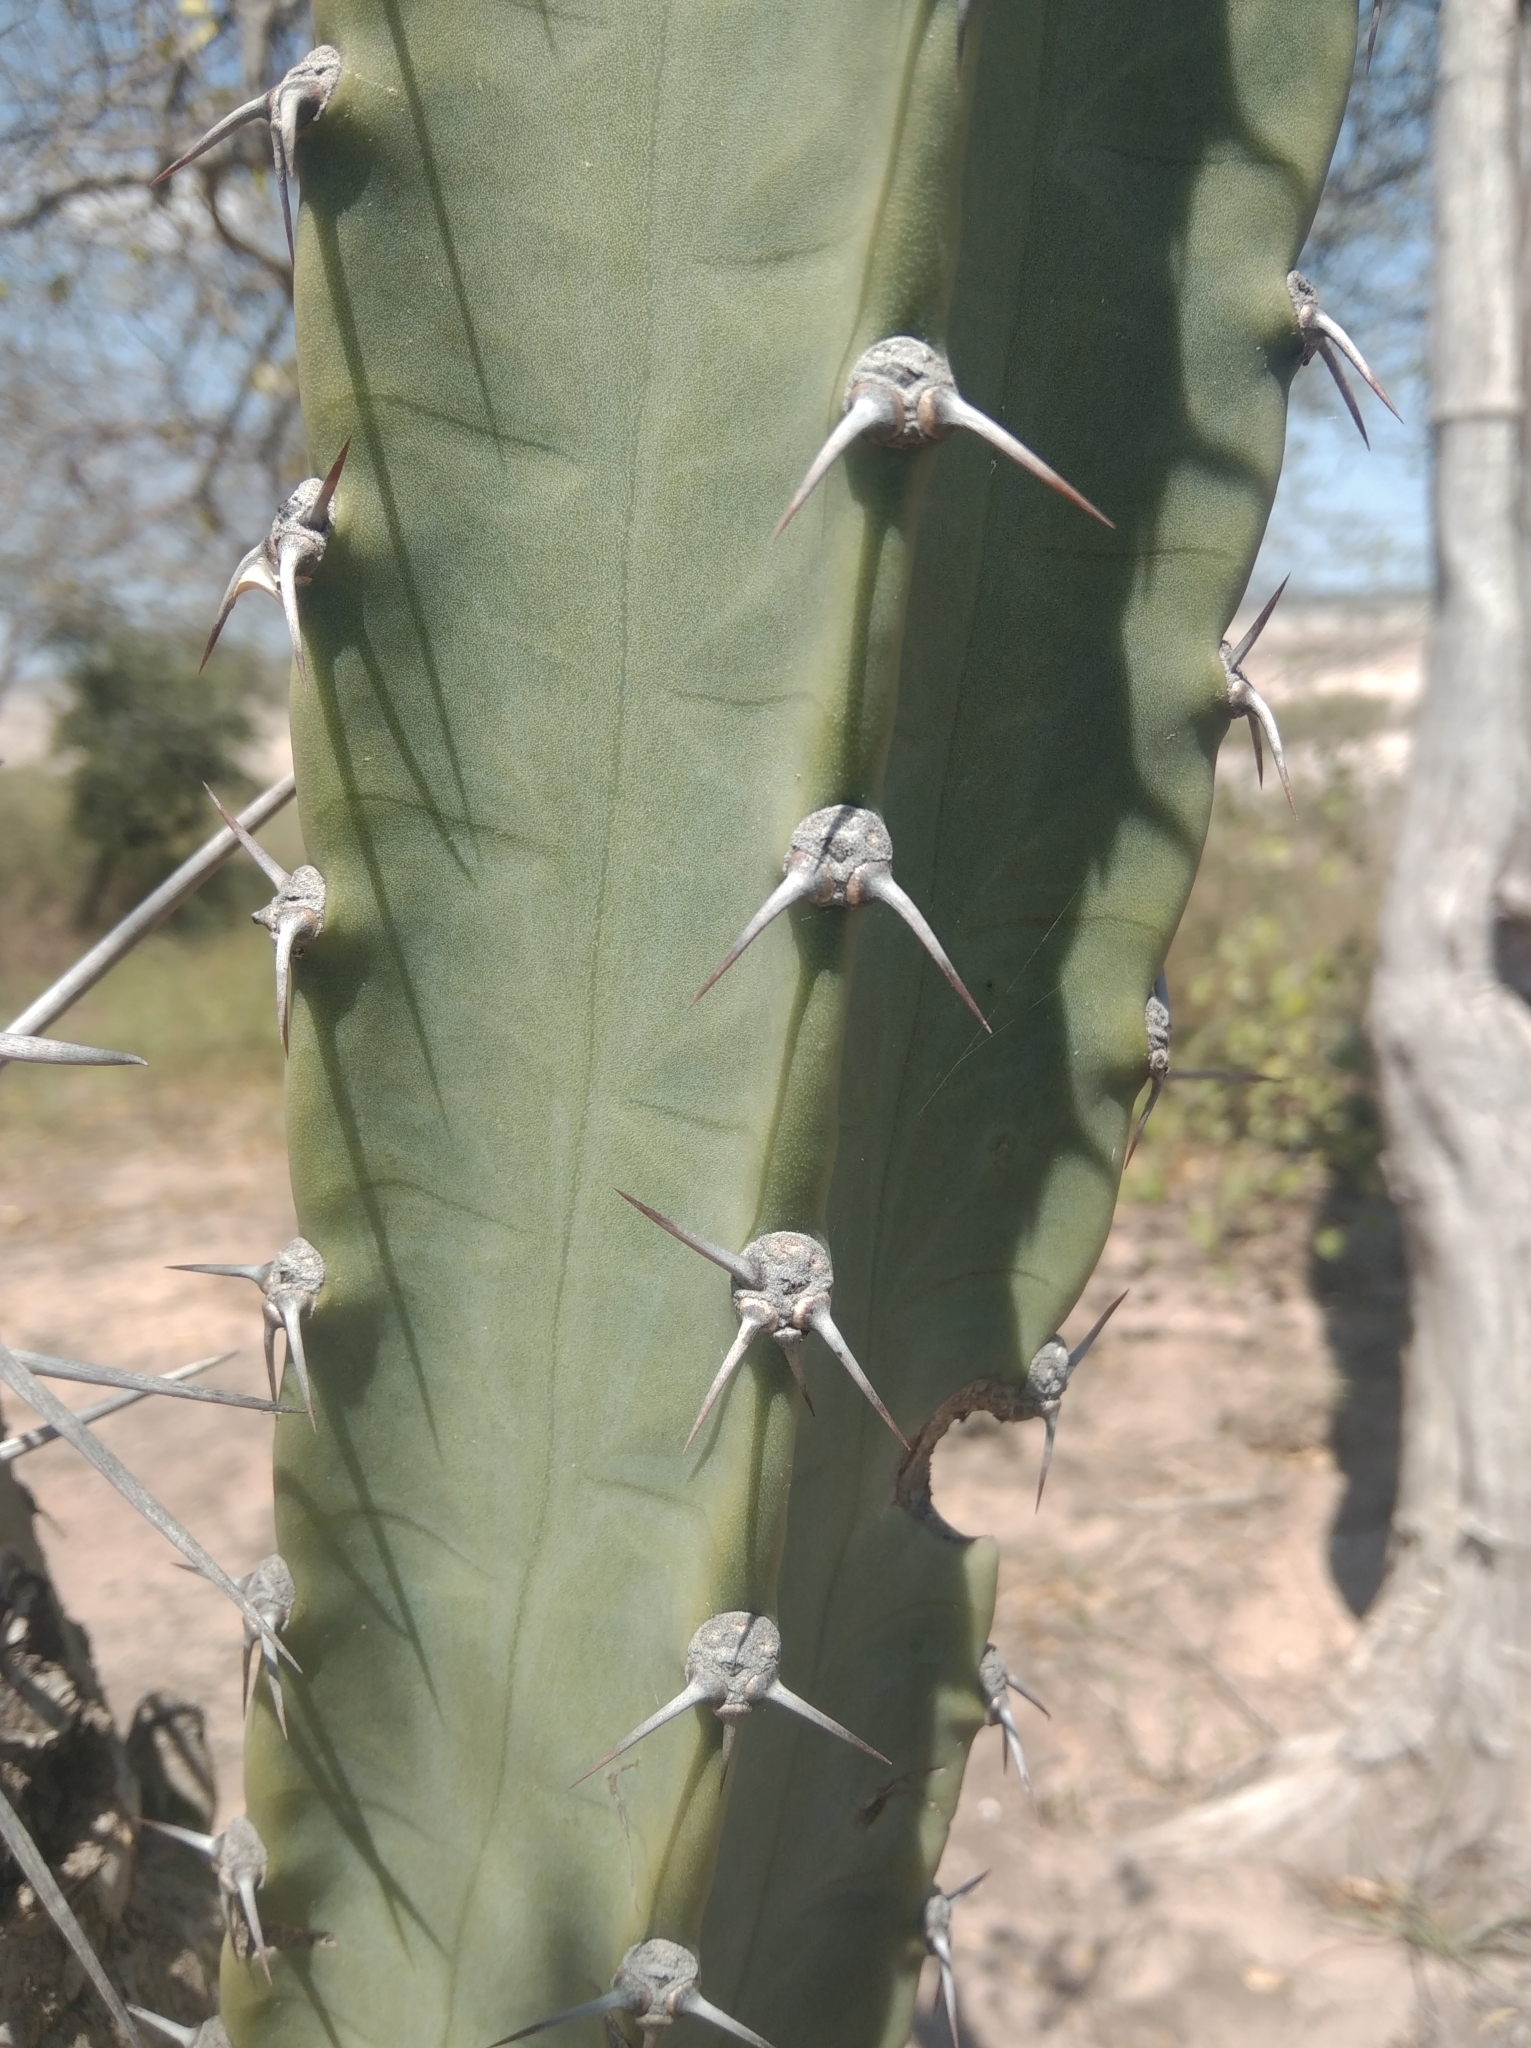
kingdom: Plantae
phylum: Tracheophyta
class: Magnoliopsida
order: Caryophyllales
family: Cactaceae
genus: Cereus
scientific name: Cereus hankeanus
